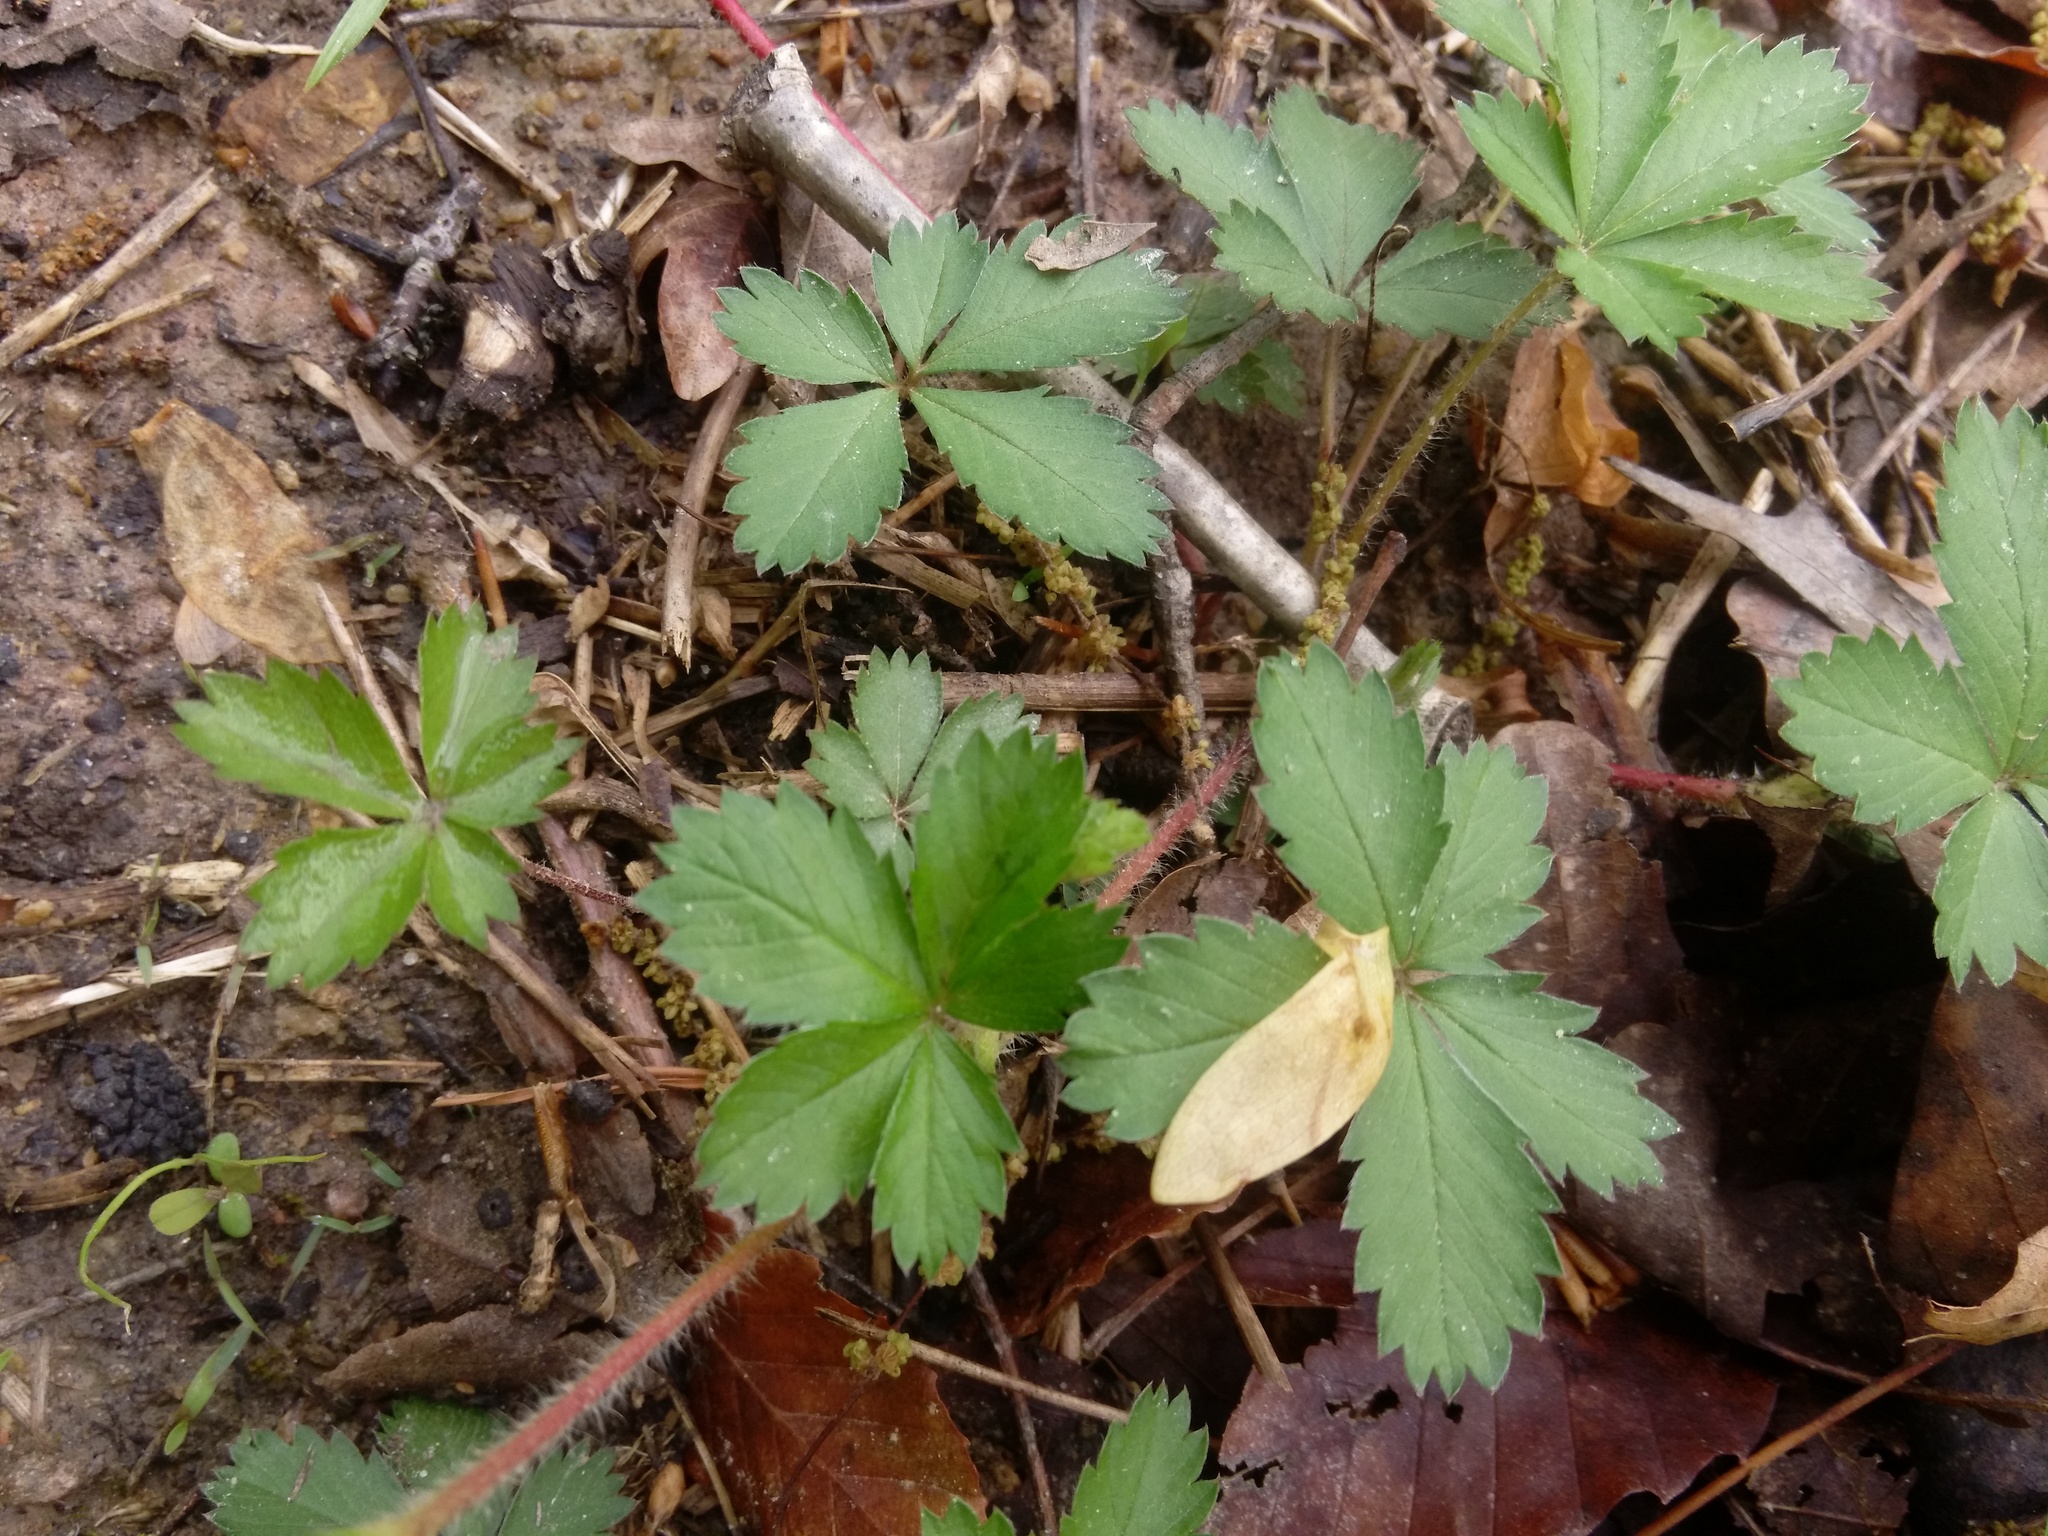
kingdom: Plantae
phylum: Tracheophyta
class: Magnoliopsida
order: Rosales
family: Rosaceae
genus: Potentilla
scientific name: Potentilla canadensis
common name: Canada cinquefoil
